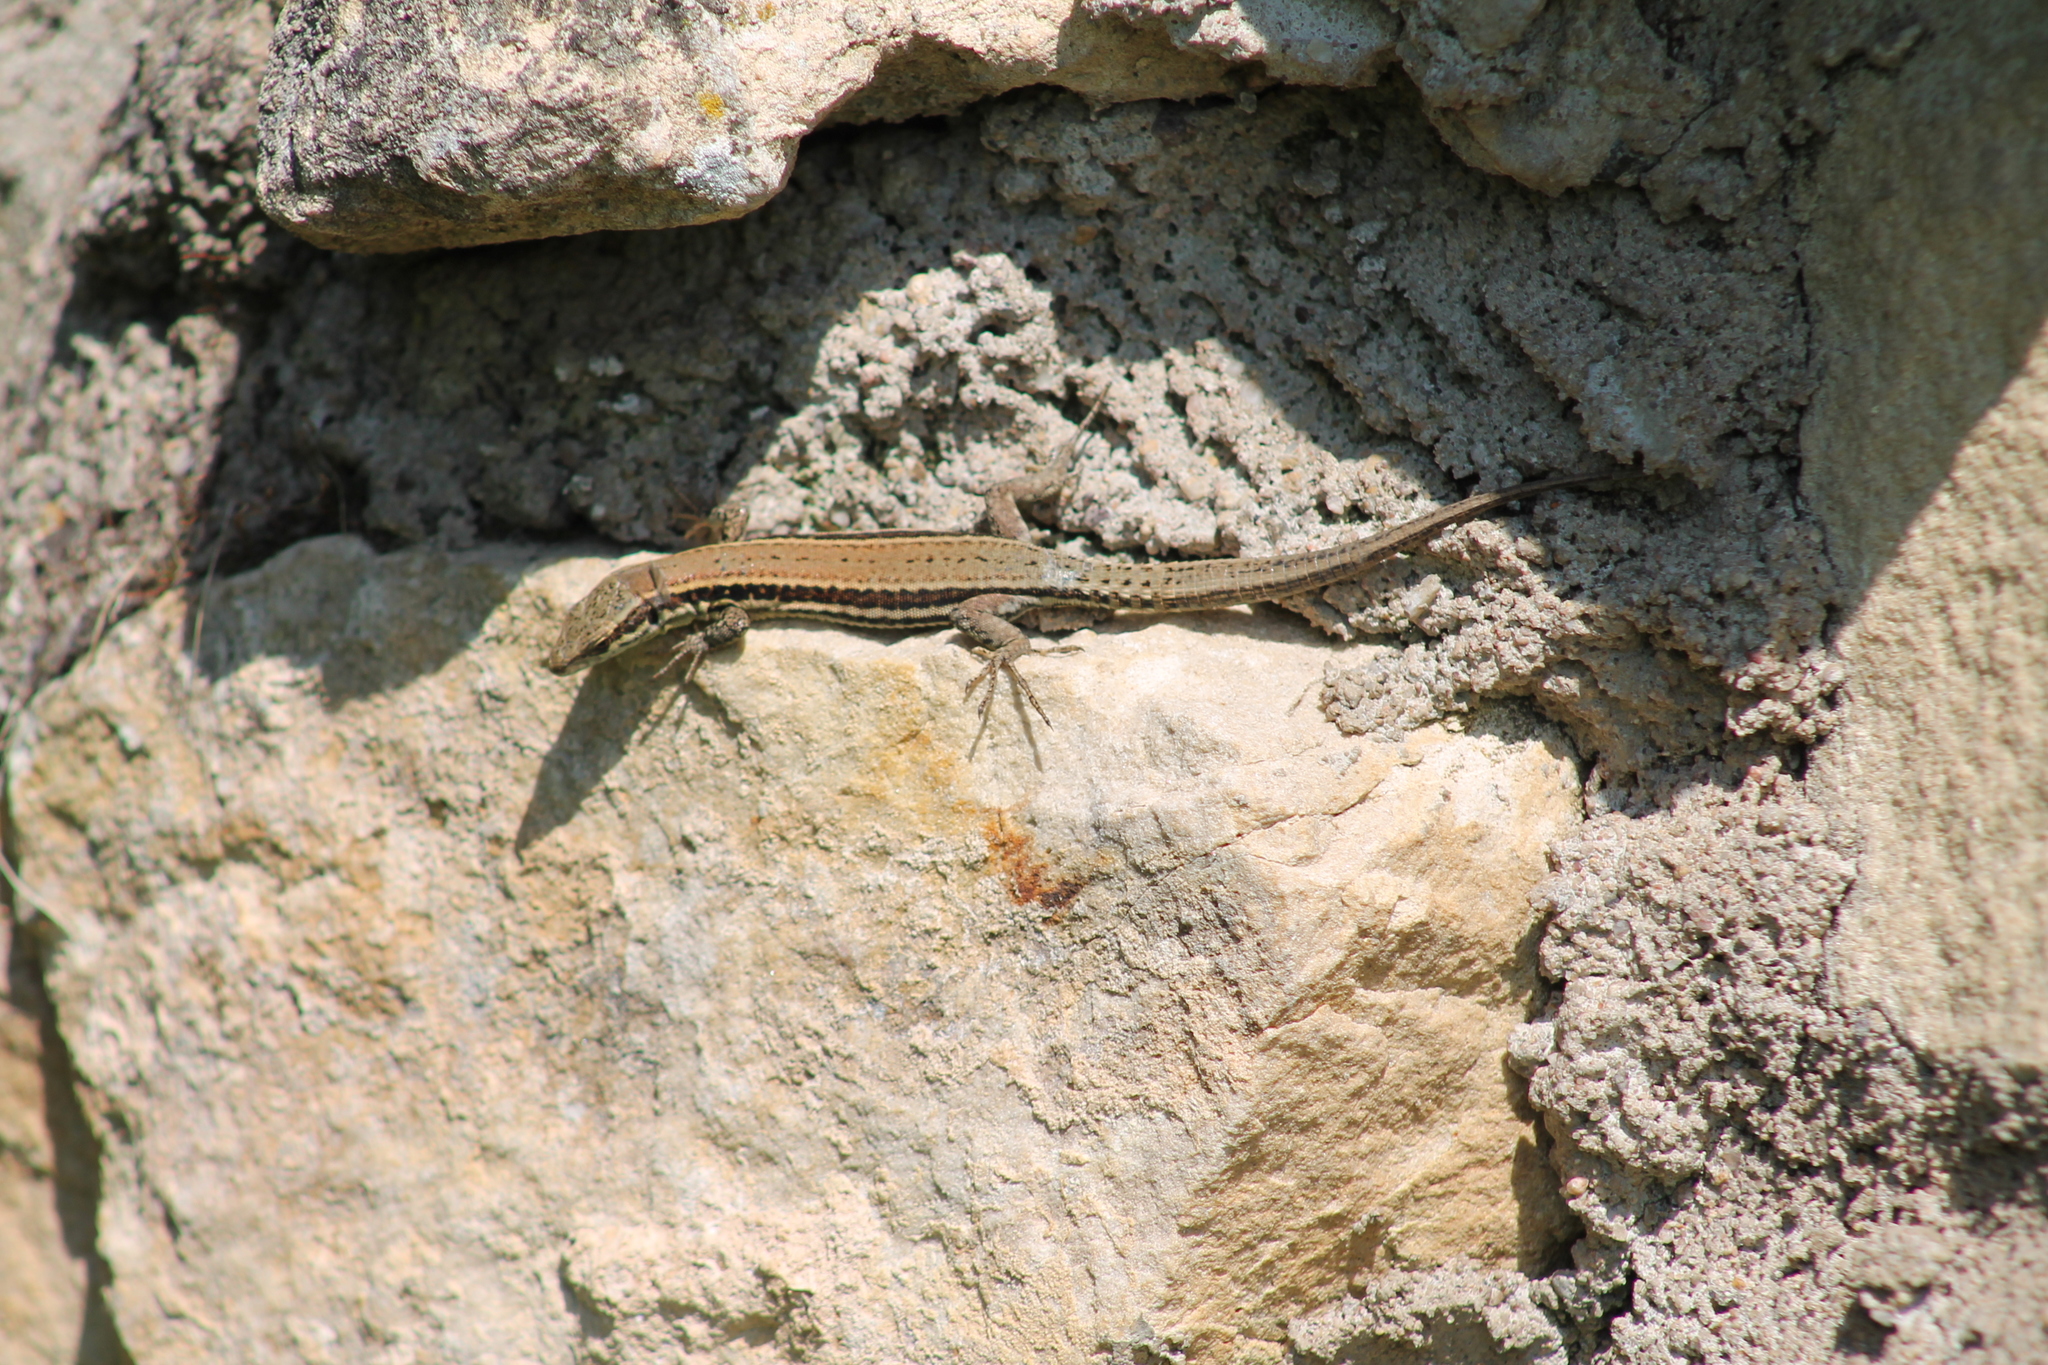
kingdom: Animalia
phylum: Chordata
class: Squamata
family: Lacertidae
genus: Podarcis
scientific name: Podarcis muralis
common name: Common wall lizard
